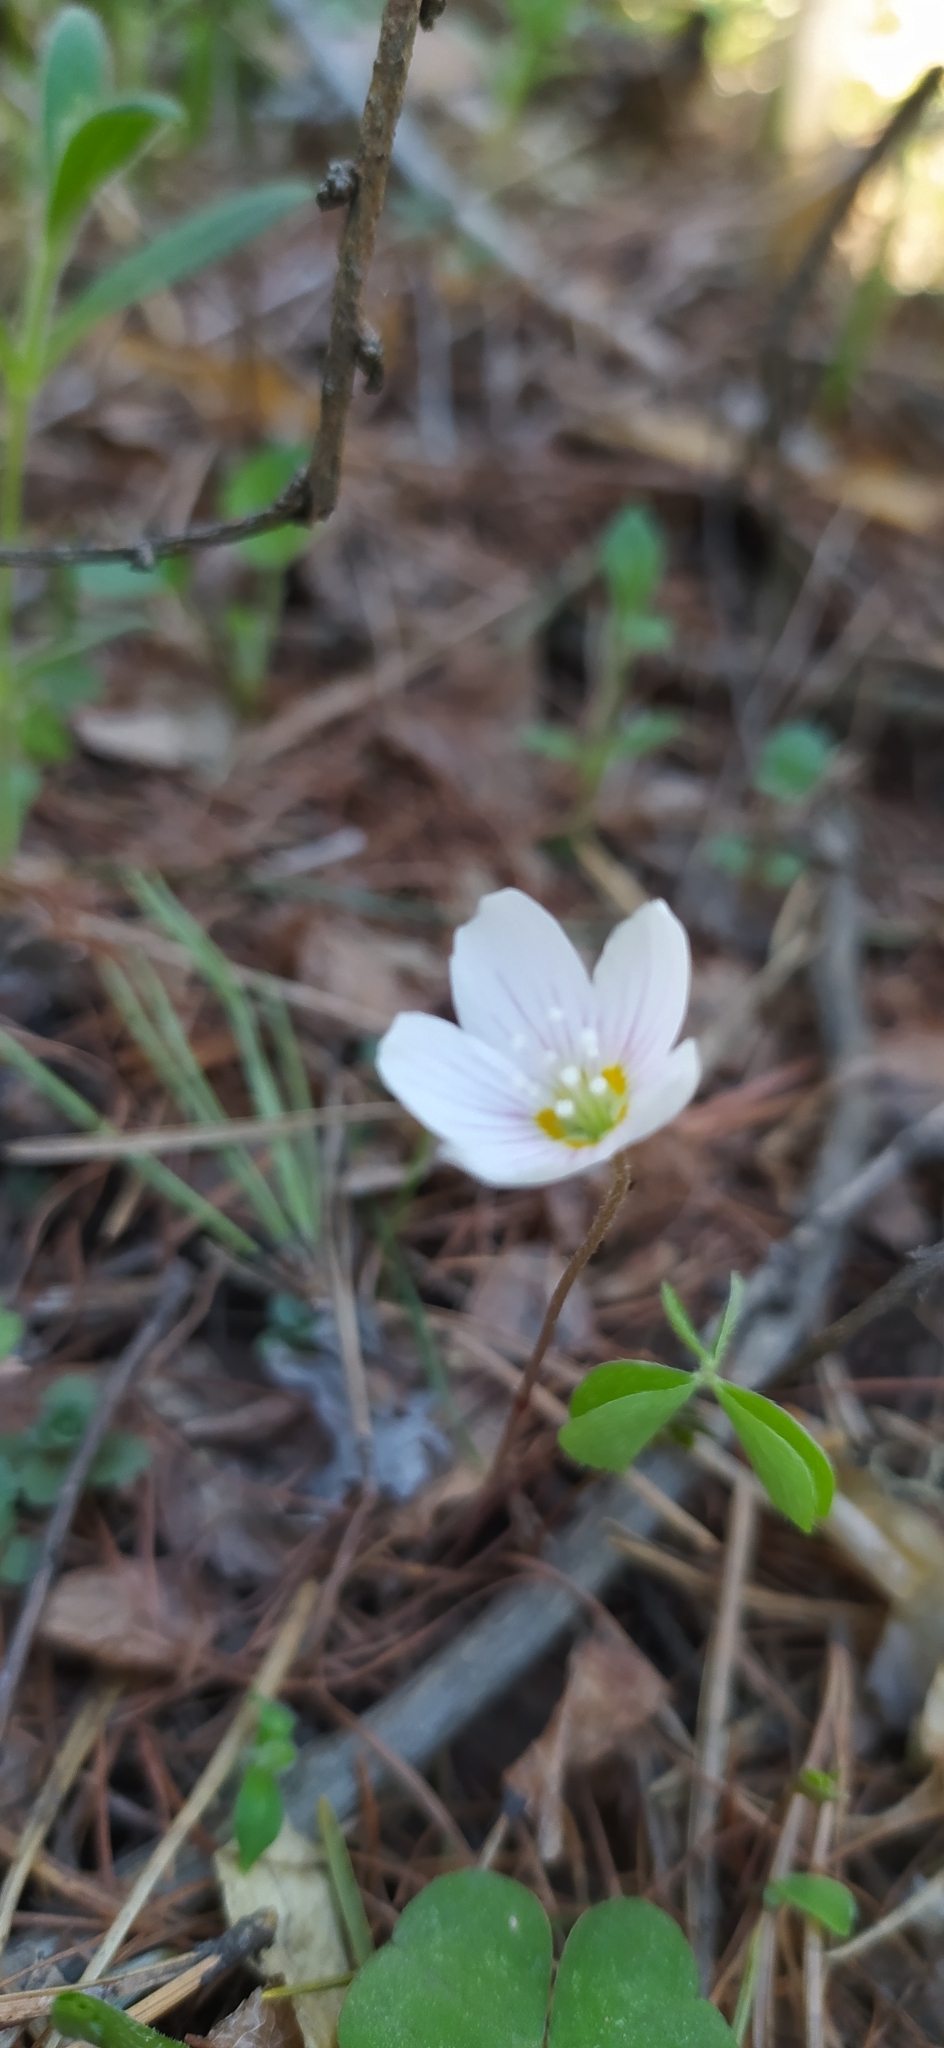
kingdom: Plantae
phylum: Tracheophyta
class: Magnoliopsida
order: Oxalidales
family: Oxalidaceae
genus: Oxalis
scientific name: Oxalis acetosella
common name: Wood-sorrel
